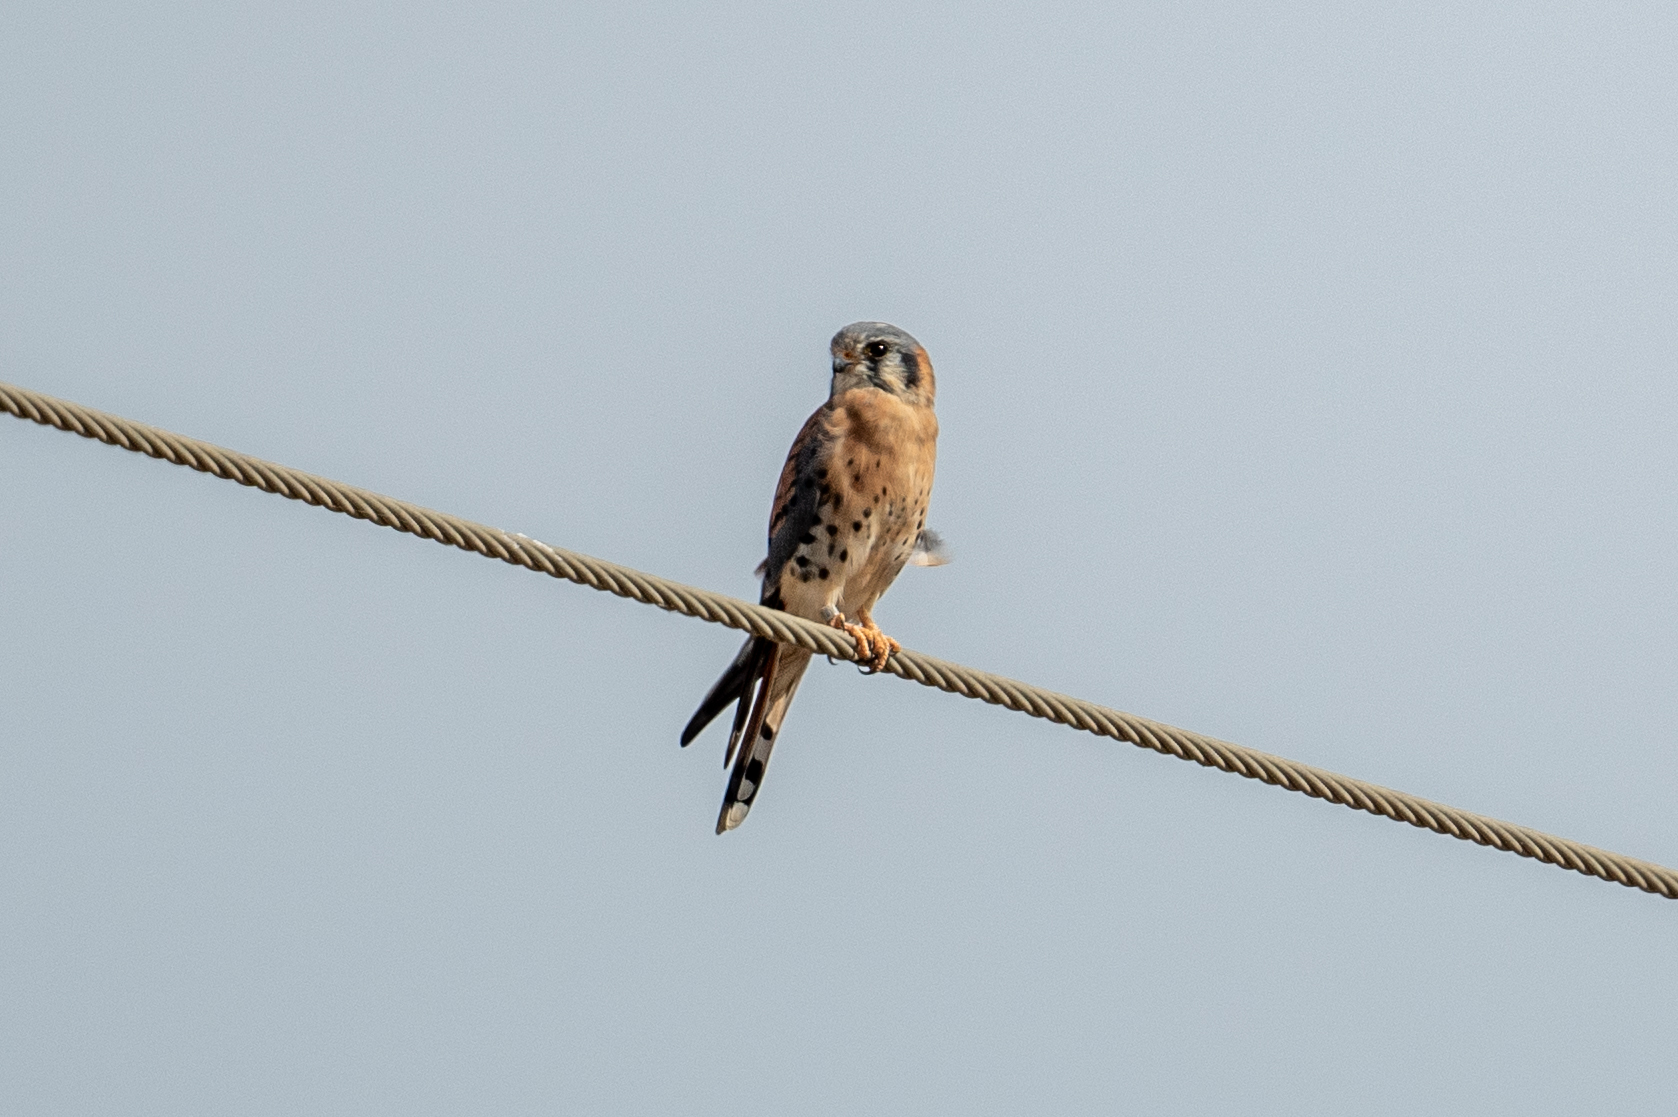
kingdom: Animalia
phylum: Chordata
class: Aves
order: Falconiformes
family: Falconidae
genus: Falco
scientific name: Falco sparverius
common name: American kestrel
